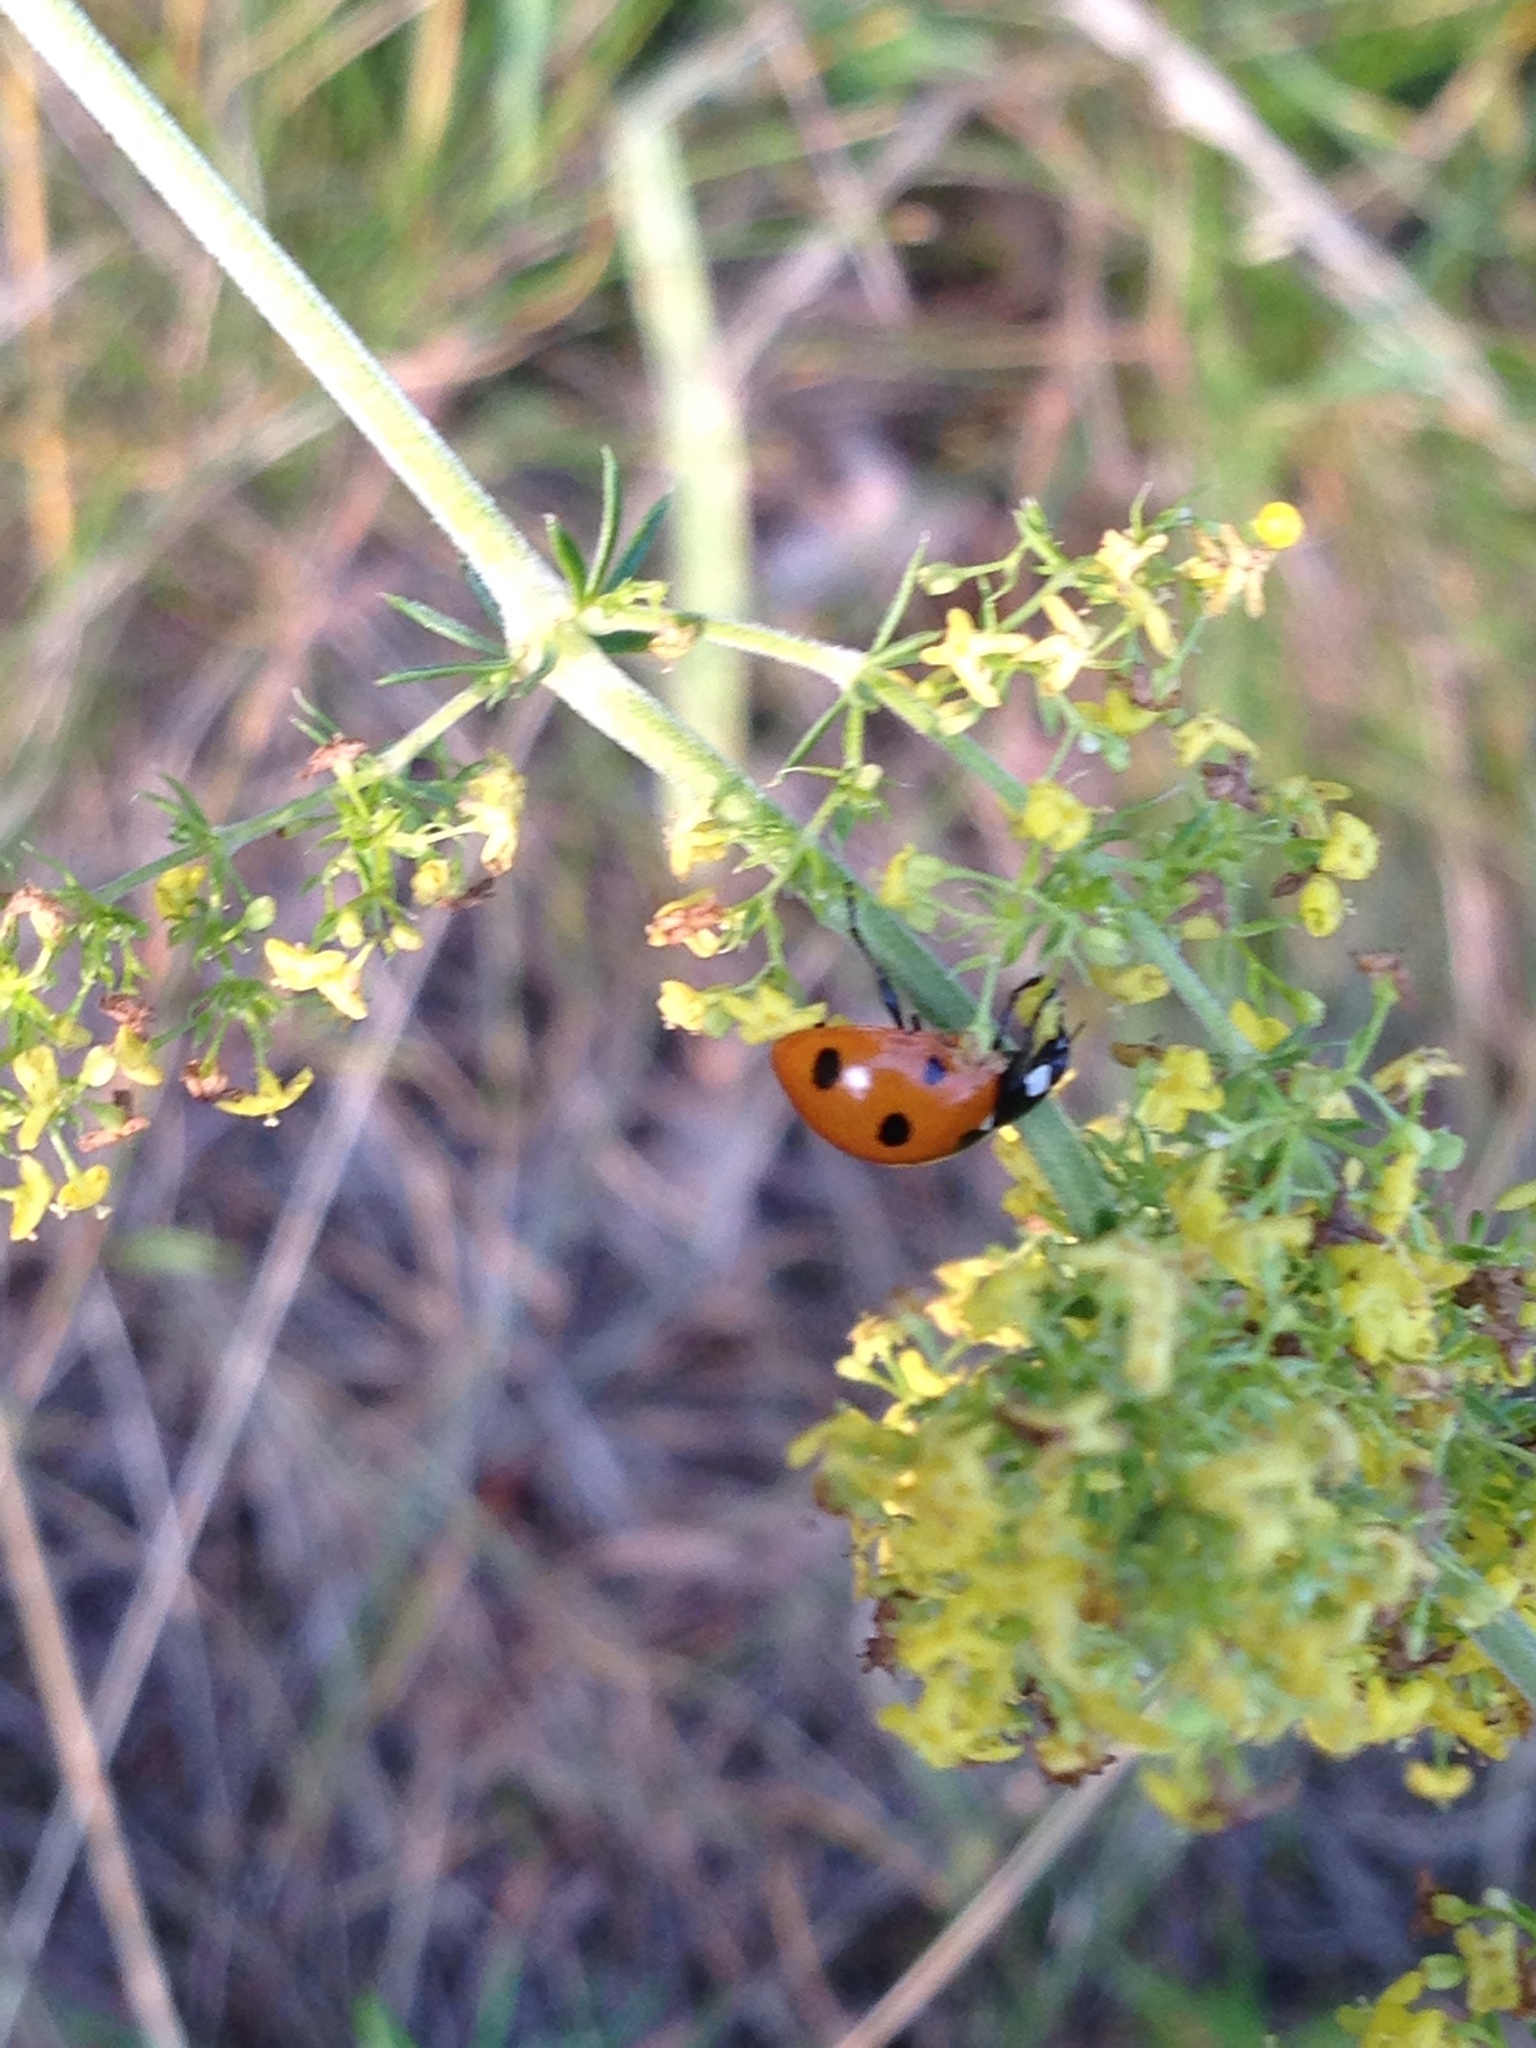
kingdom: Animalia
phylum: Arthropoda
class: Insecta
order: Coleoptera
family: Coccinellidae
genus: Coccinella
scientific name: Coccinella septempunctata
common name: Sevenspotted lady beetle
